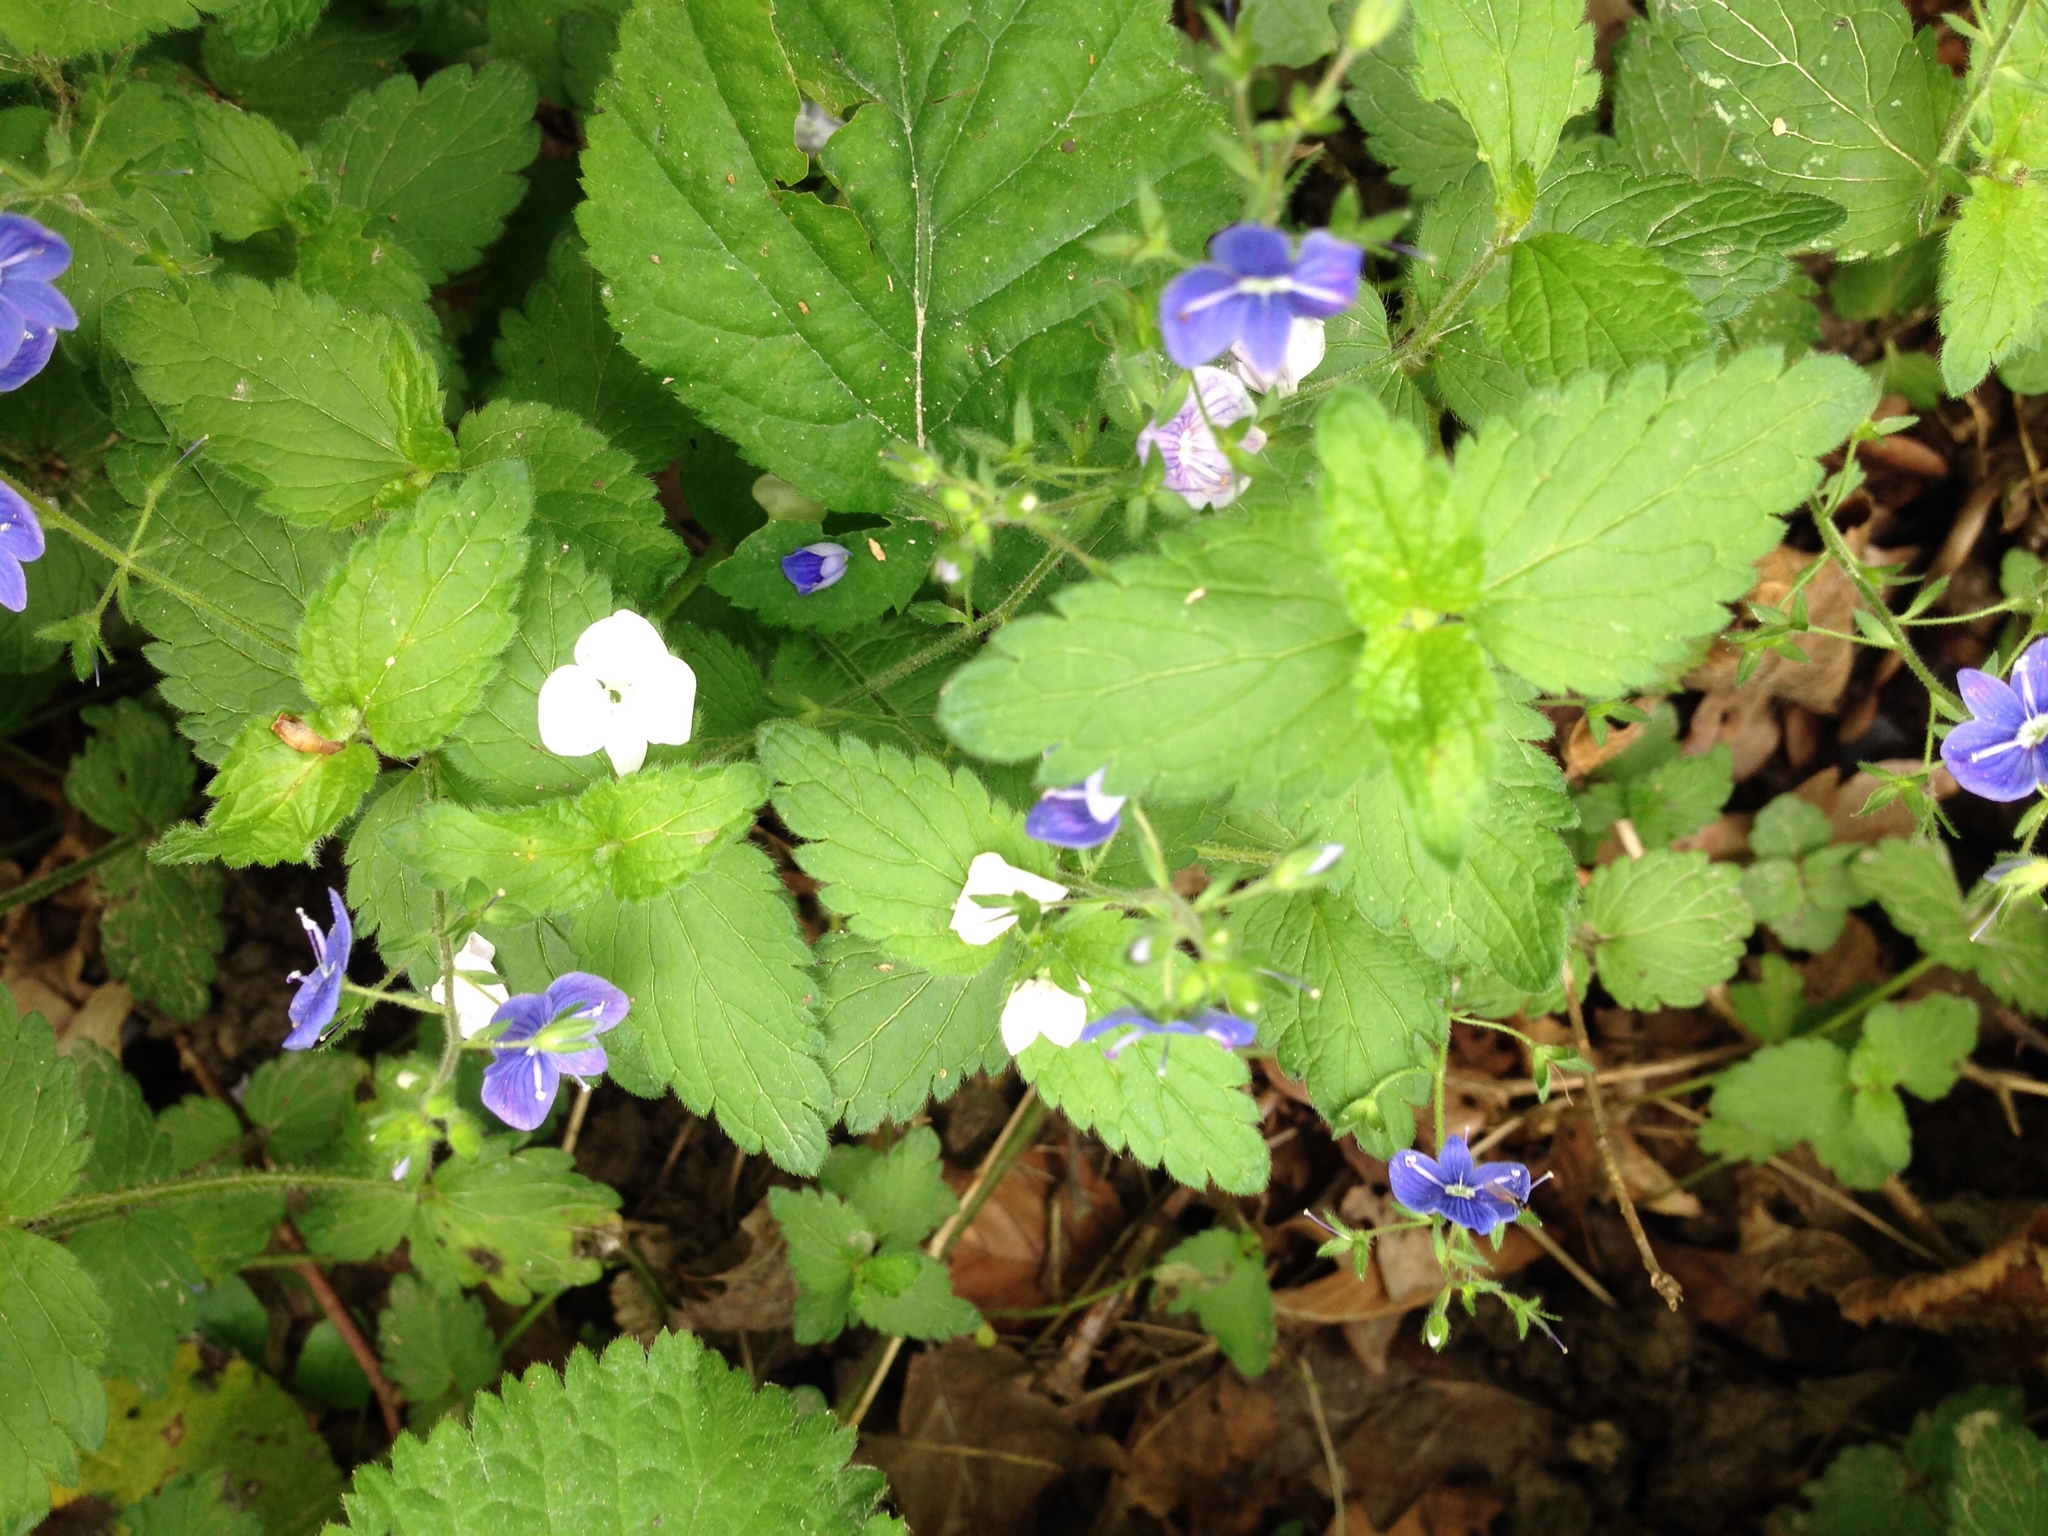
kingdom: Plantae
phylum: Tracheophyta
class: Magnoliopsida
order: Lamiales
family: Plantaginaceae
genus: Veronica
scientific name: Veronica chamaedrys
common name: Germander speedwell
